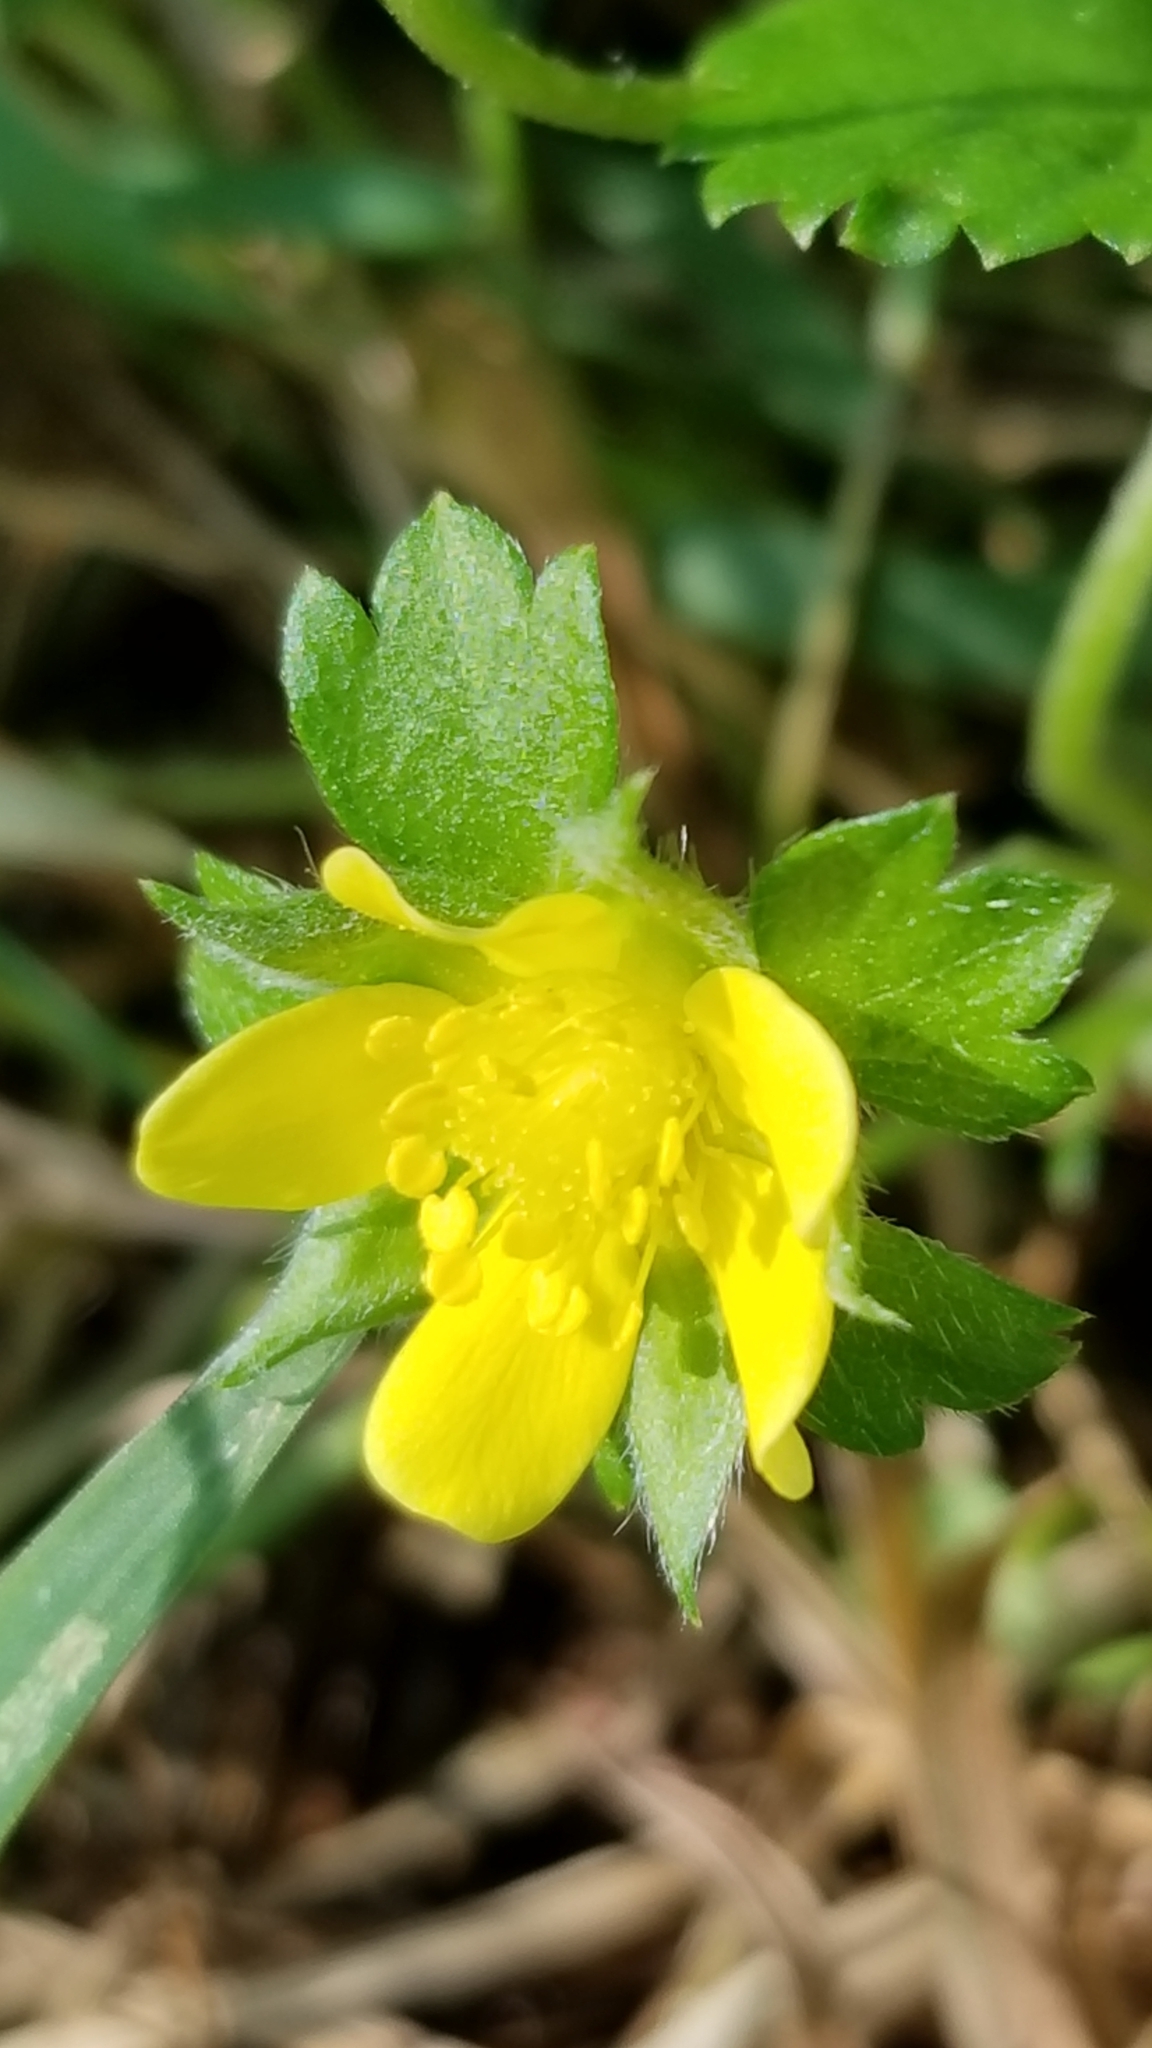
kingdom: Plantae
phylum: Tracheophyta
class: Magnoliopsida
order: Rosales
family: Rosaceae
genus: Potentilla
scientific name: Potentilla indica
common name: Yellow-flowered strawberry
